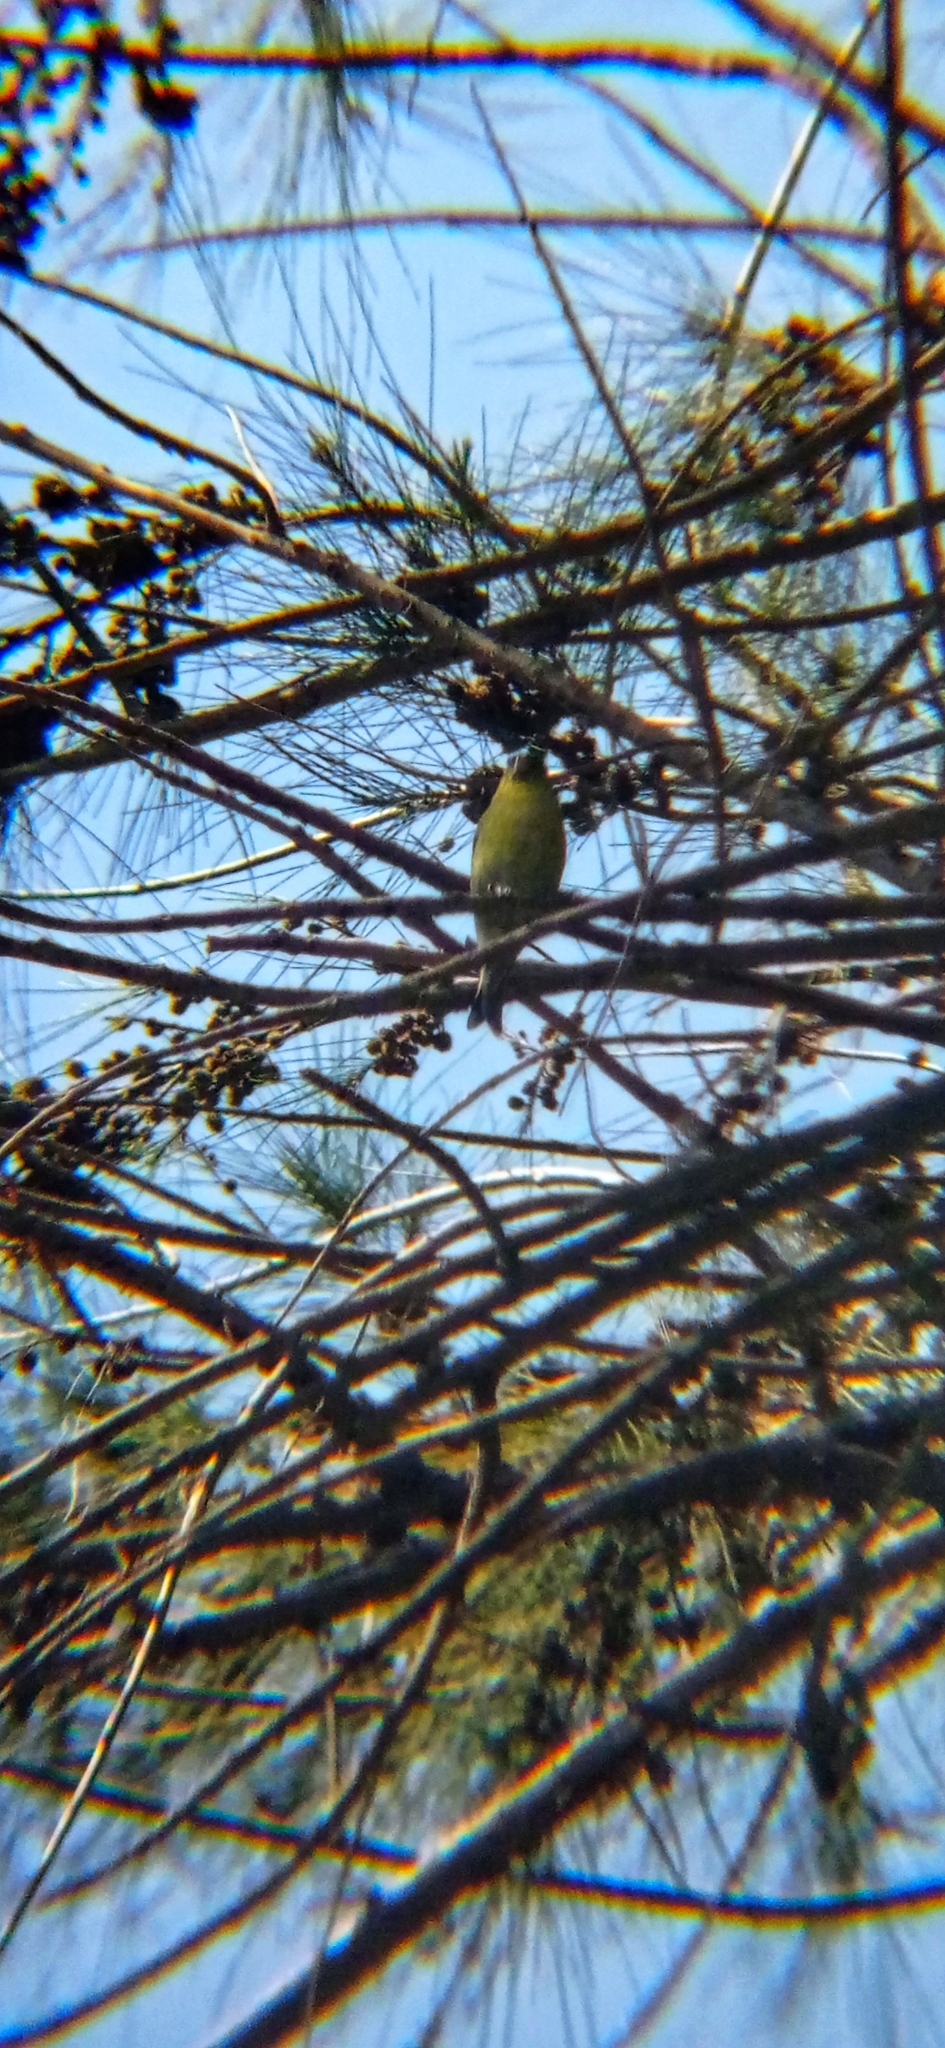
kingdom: Animalia
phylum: Chordata
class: Aves
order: Passeriformes
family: Fringillidae
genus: Spinus
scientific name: Spinus barbatus
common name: Black-chinned siskin
